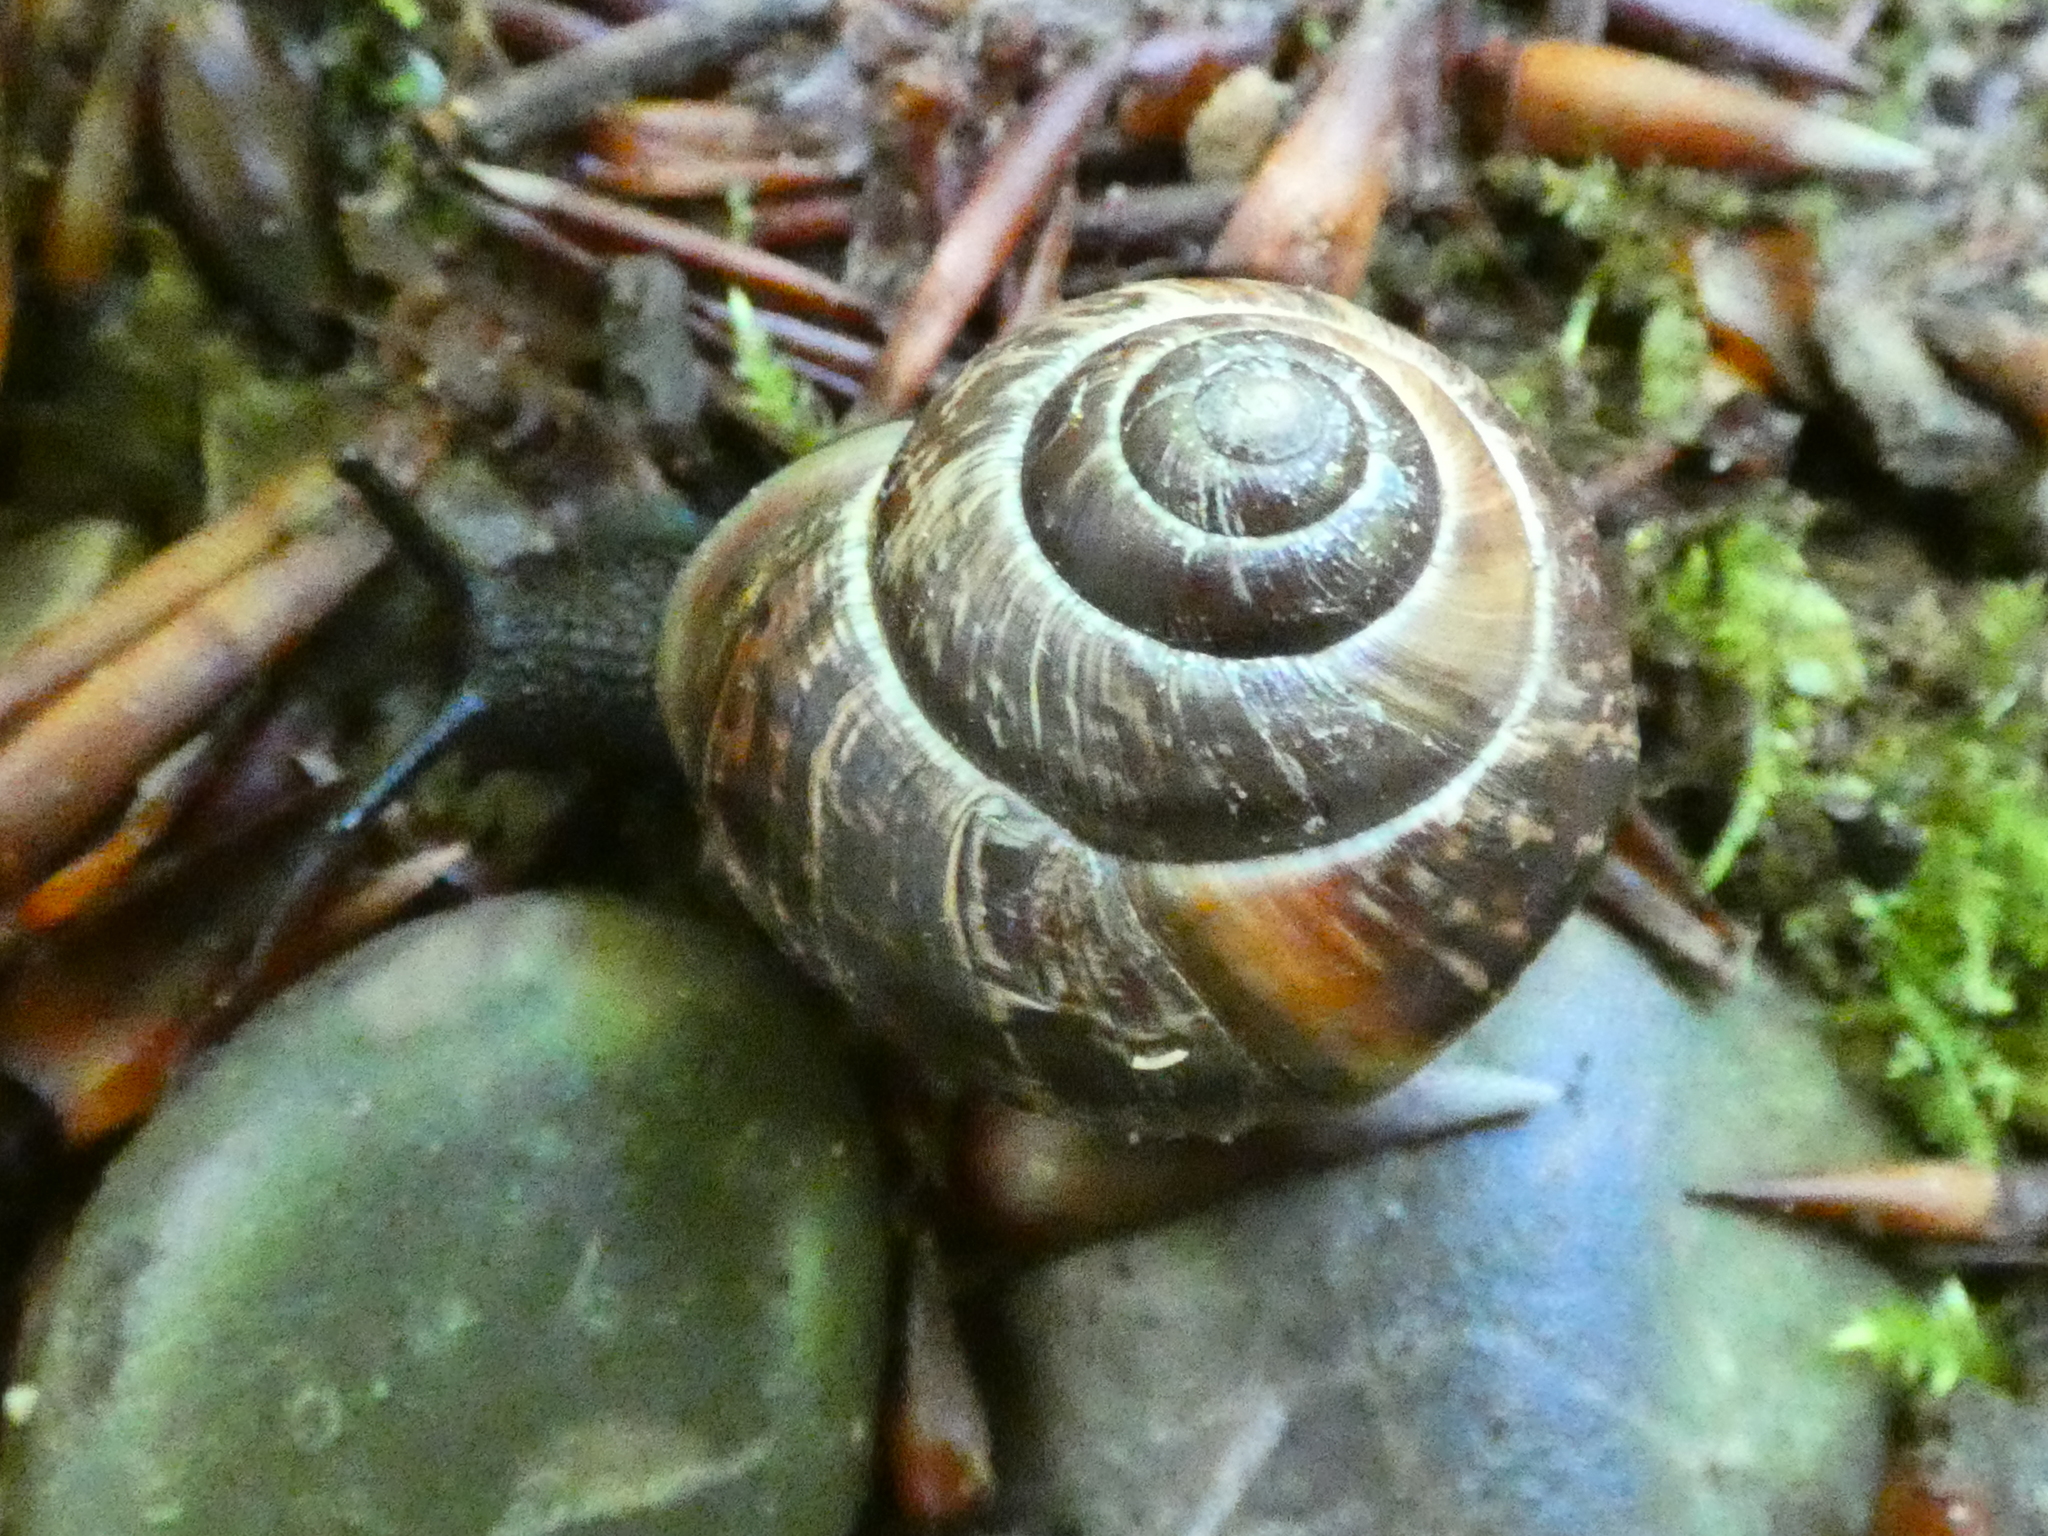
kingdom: Animalia
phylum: Mollusca
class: Gastropoda
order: Stylommatophora
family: Helicidae
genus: Arianta
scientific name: Arianta arbustorum
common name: Copse snail
